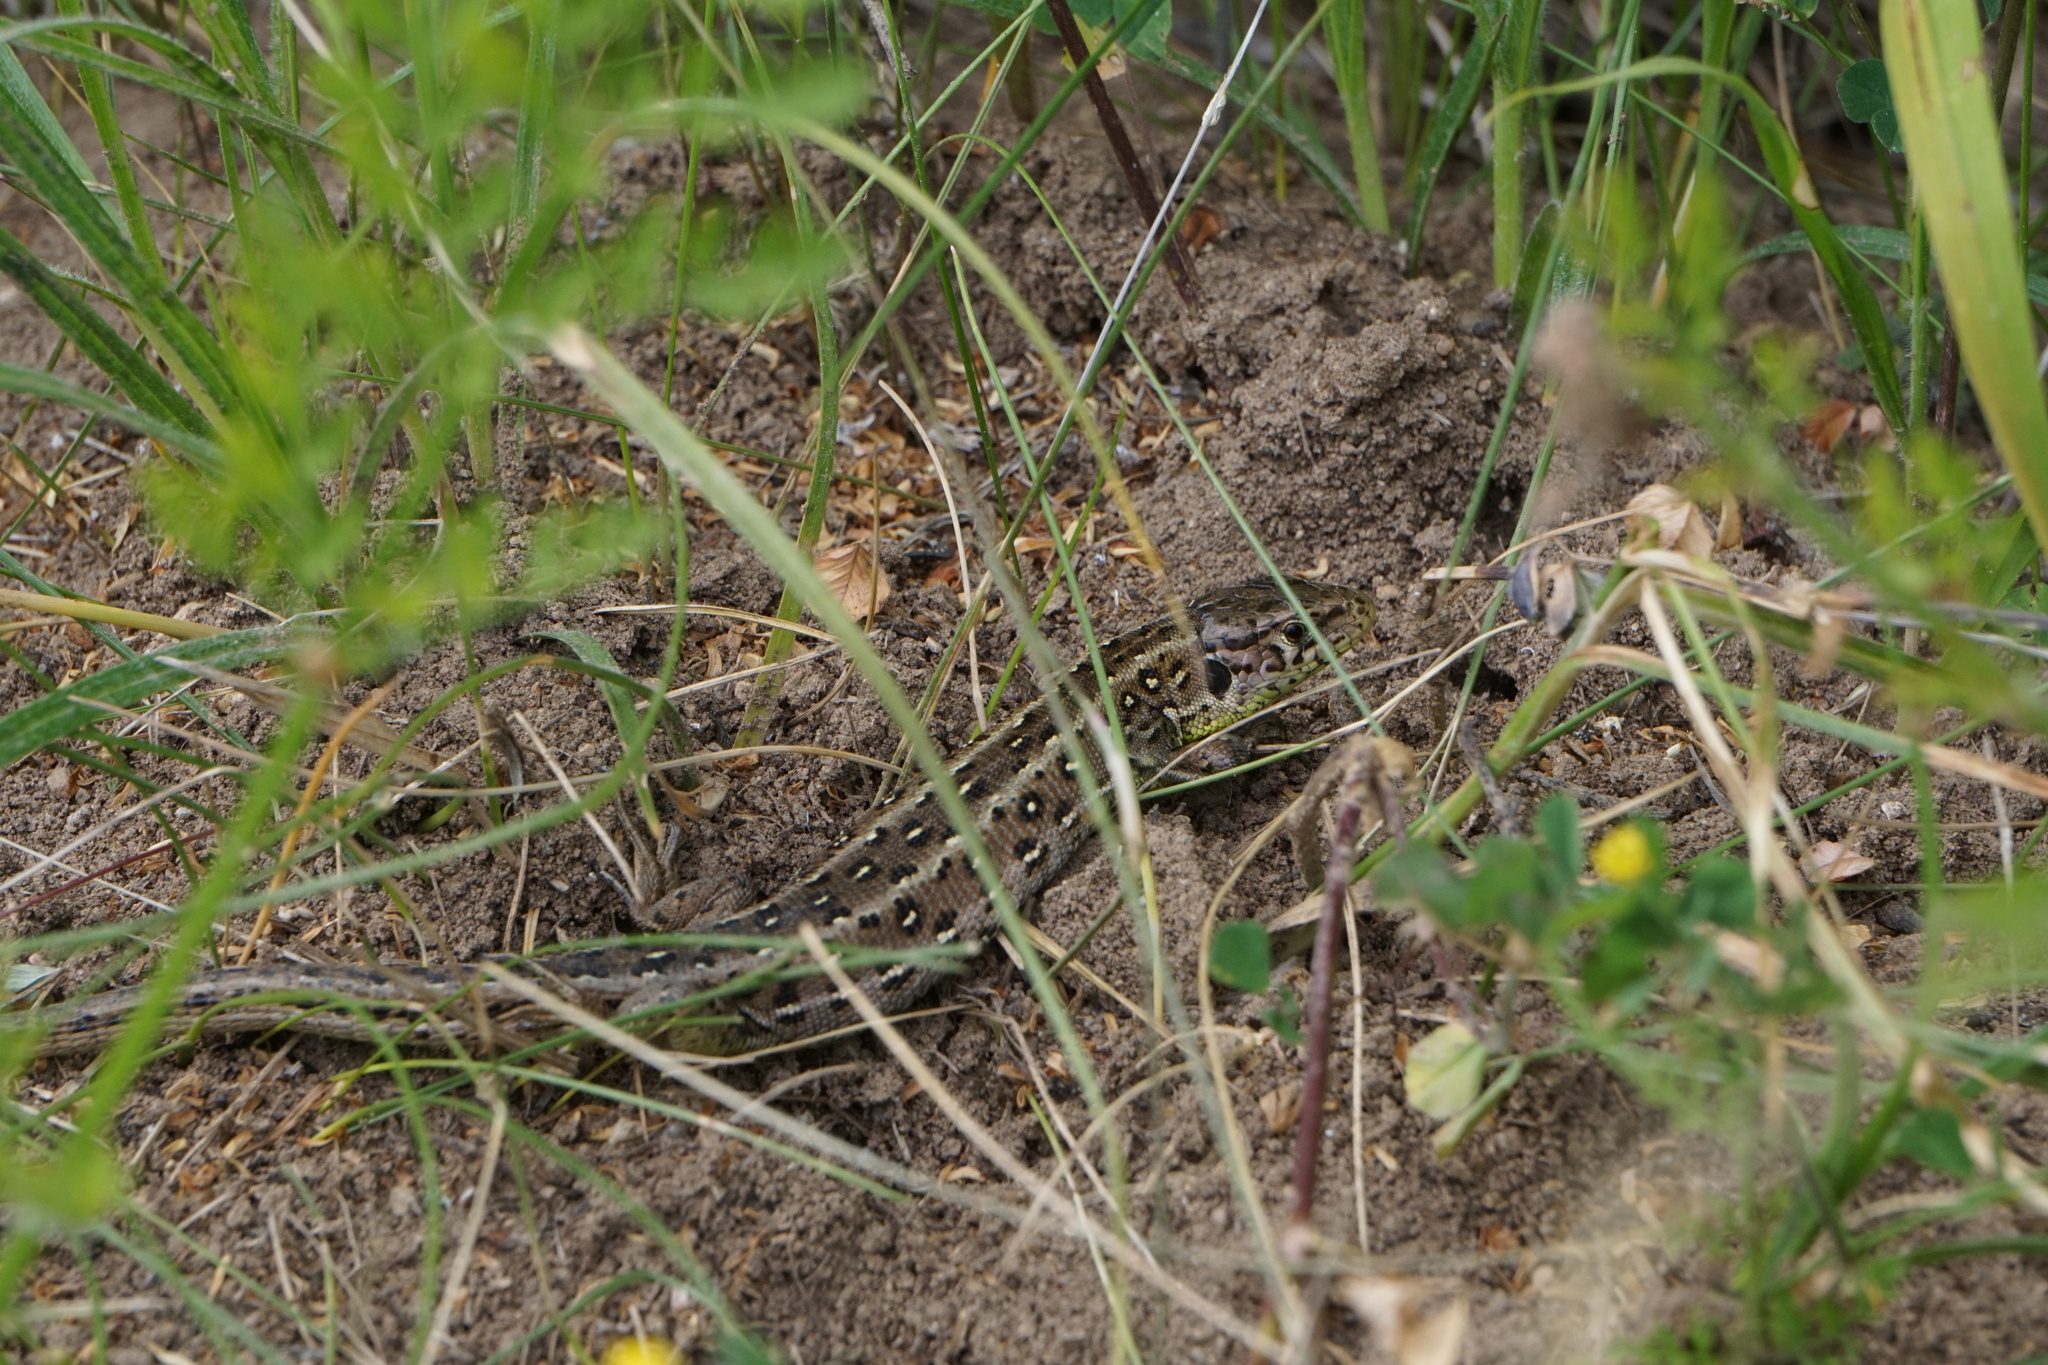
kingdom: Animalia
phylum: Chordata
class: Squamata
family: Lacertidae
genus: Lacerta
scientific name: Lacerta agilis
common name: Sand lizard
